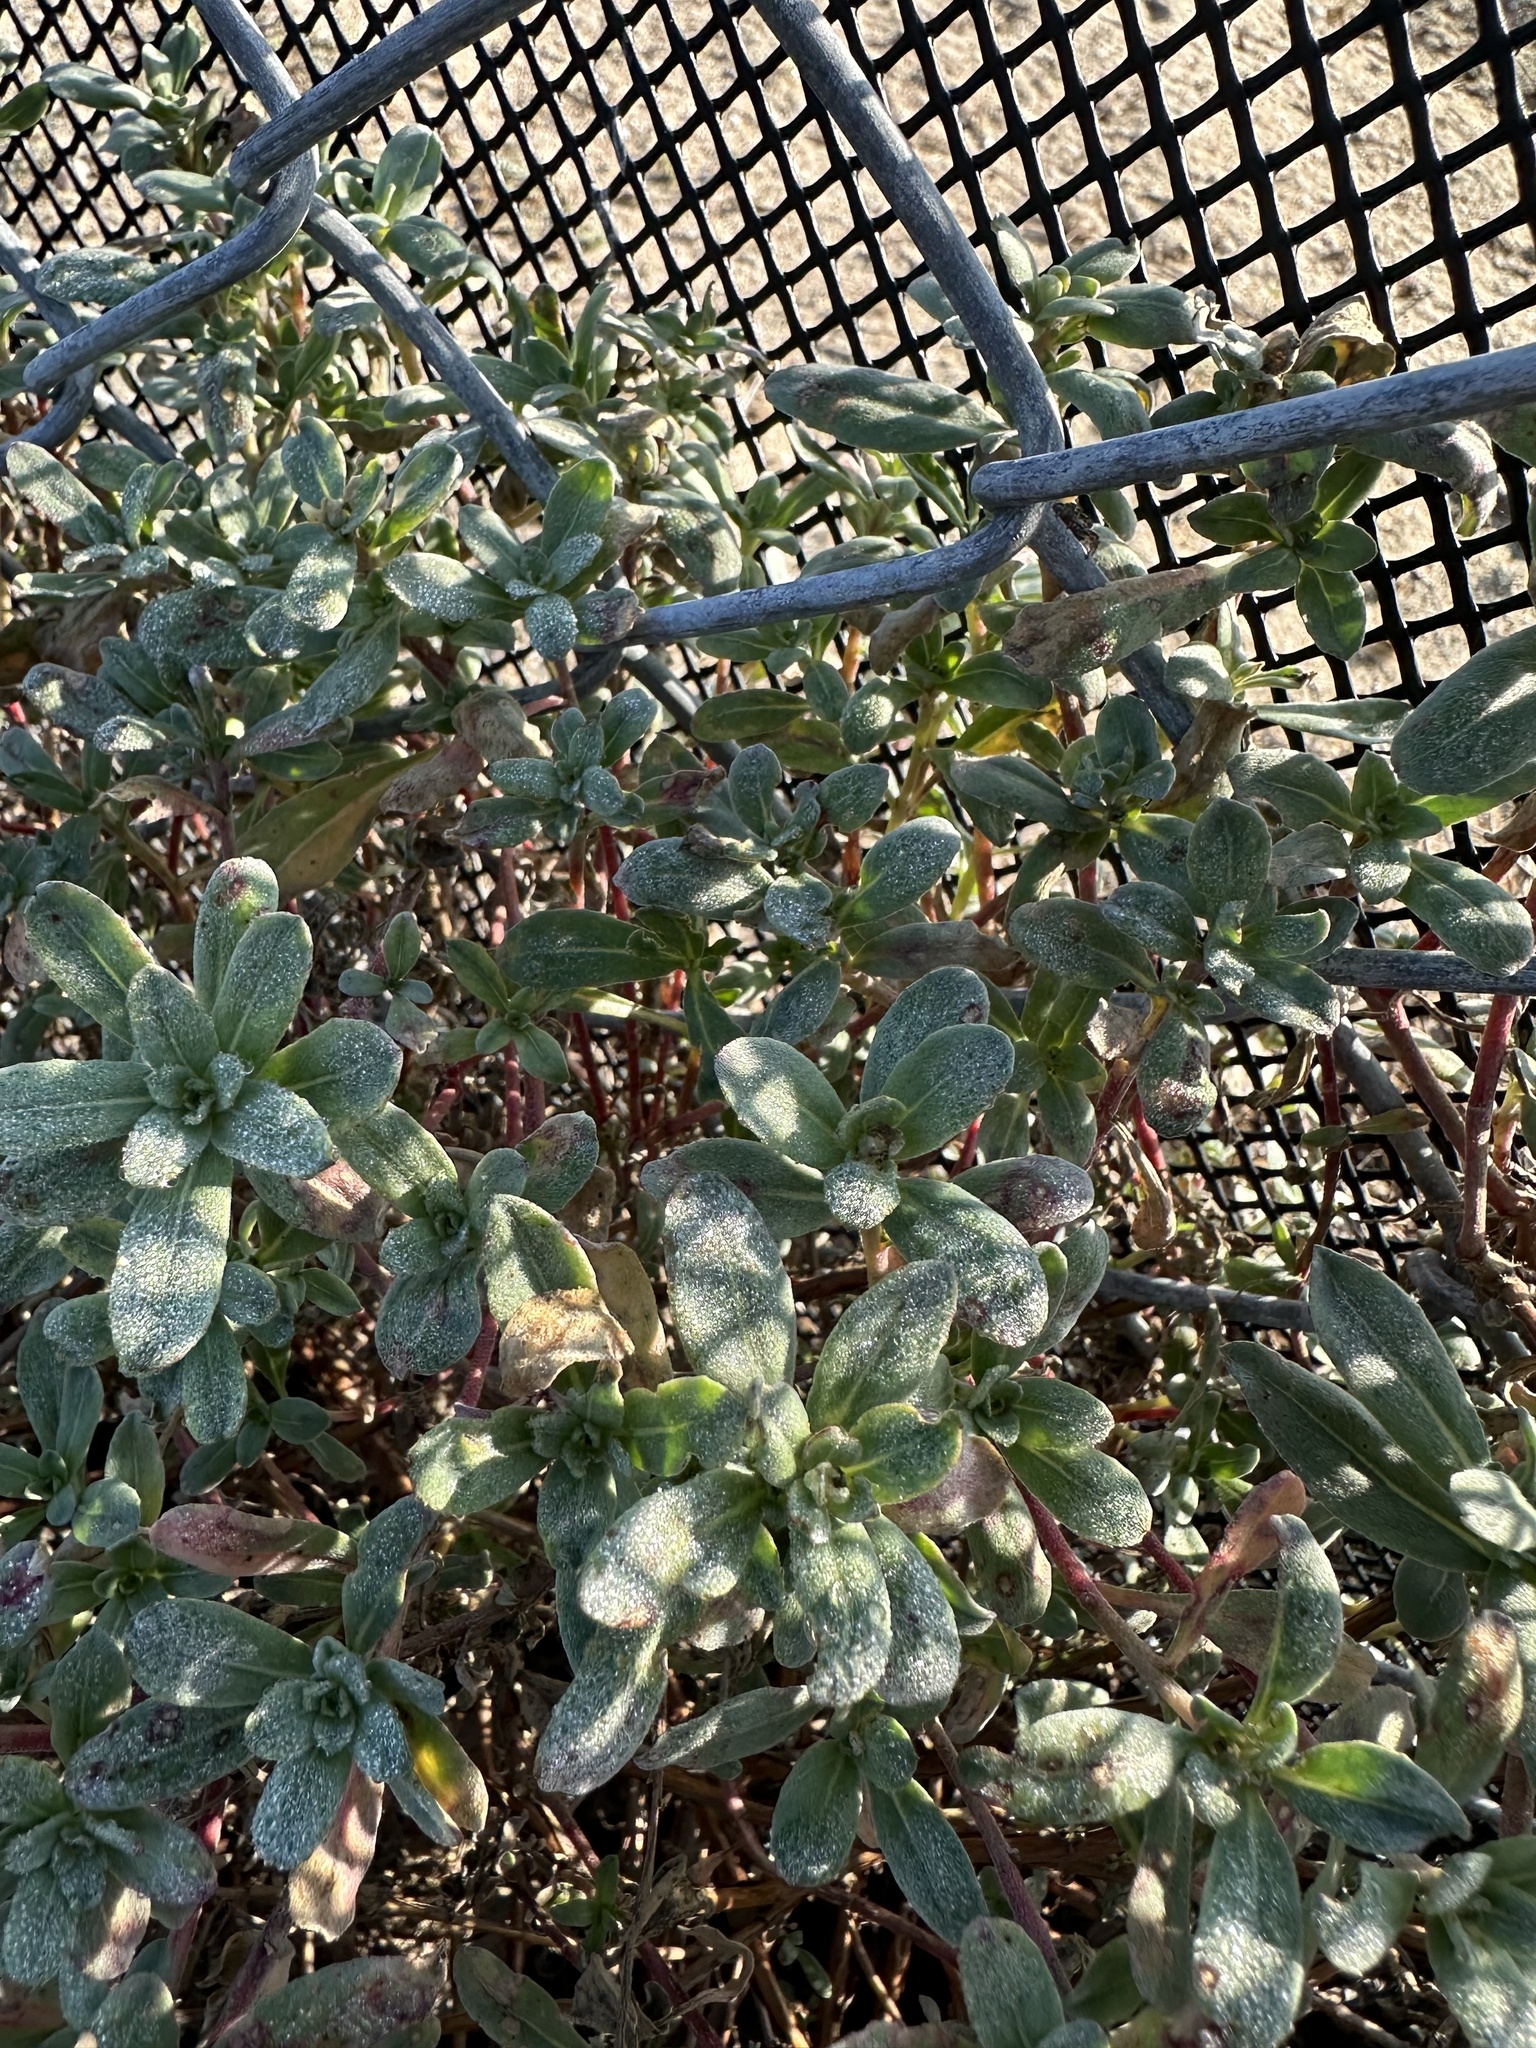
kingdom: Plantae
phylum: Tracheophyta
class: Magnoliopsida
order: Myrtales
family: Onagraceae
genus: Camissoniopsis
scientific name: Camissoniopsis cheiranthifolia
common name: Beach suncup
